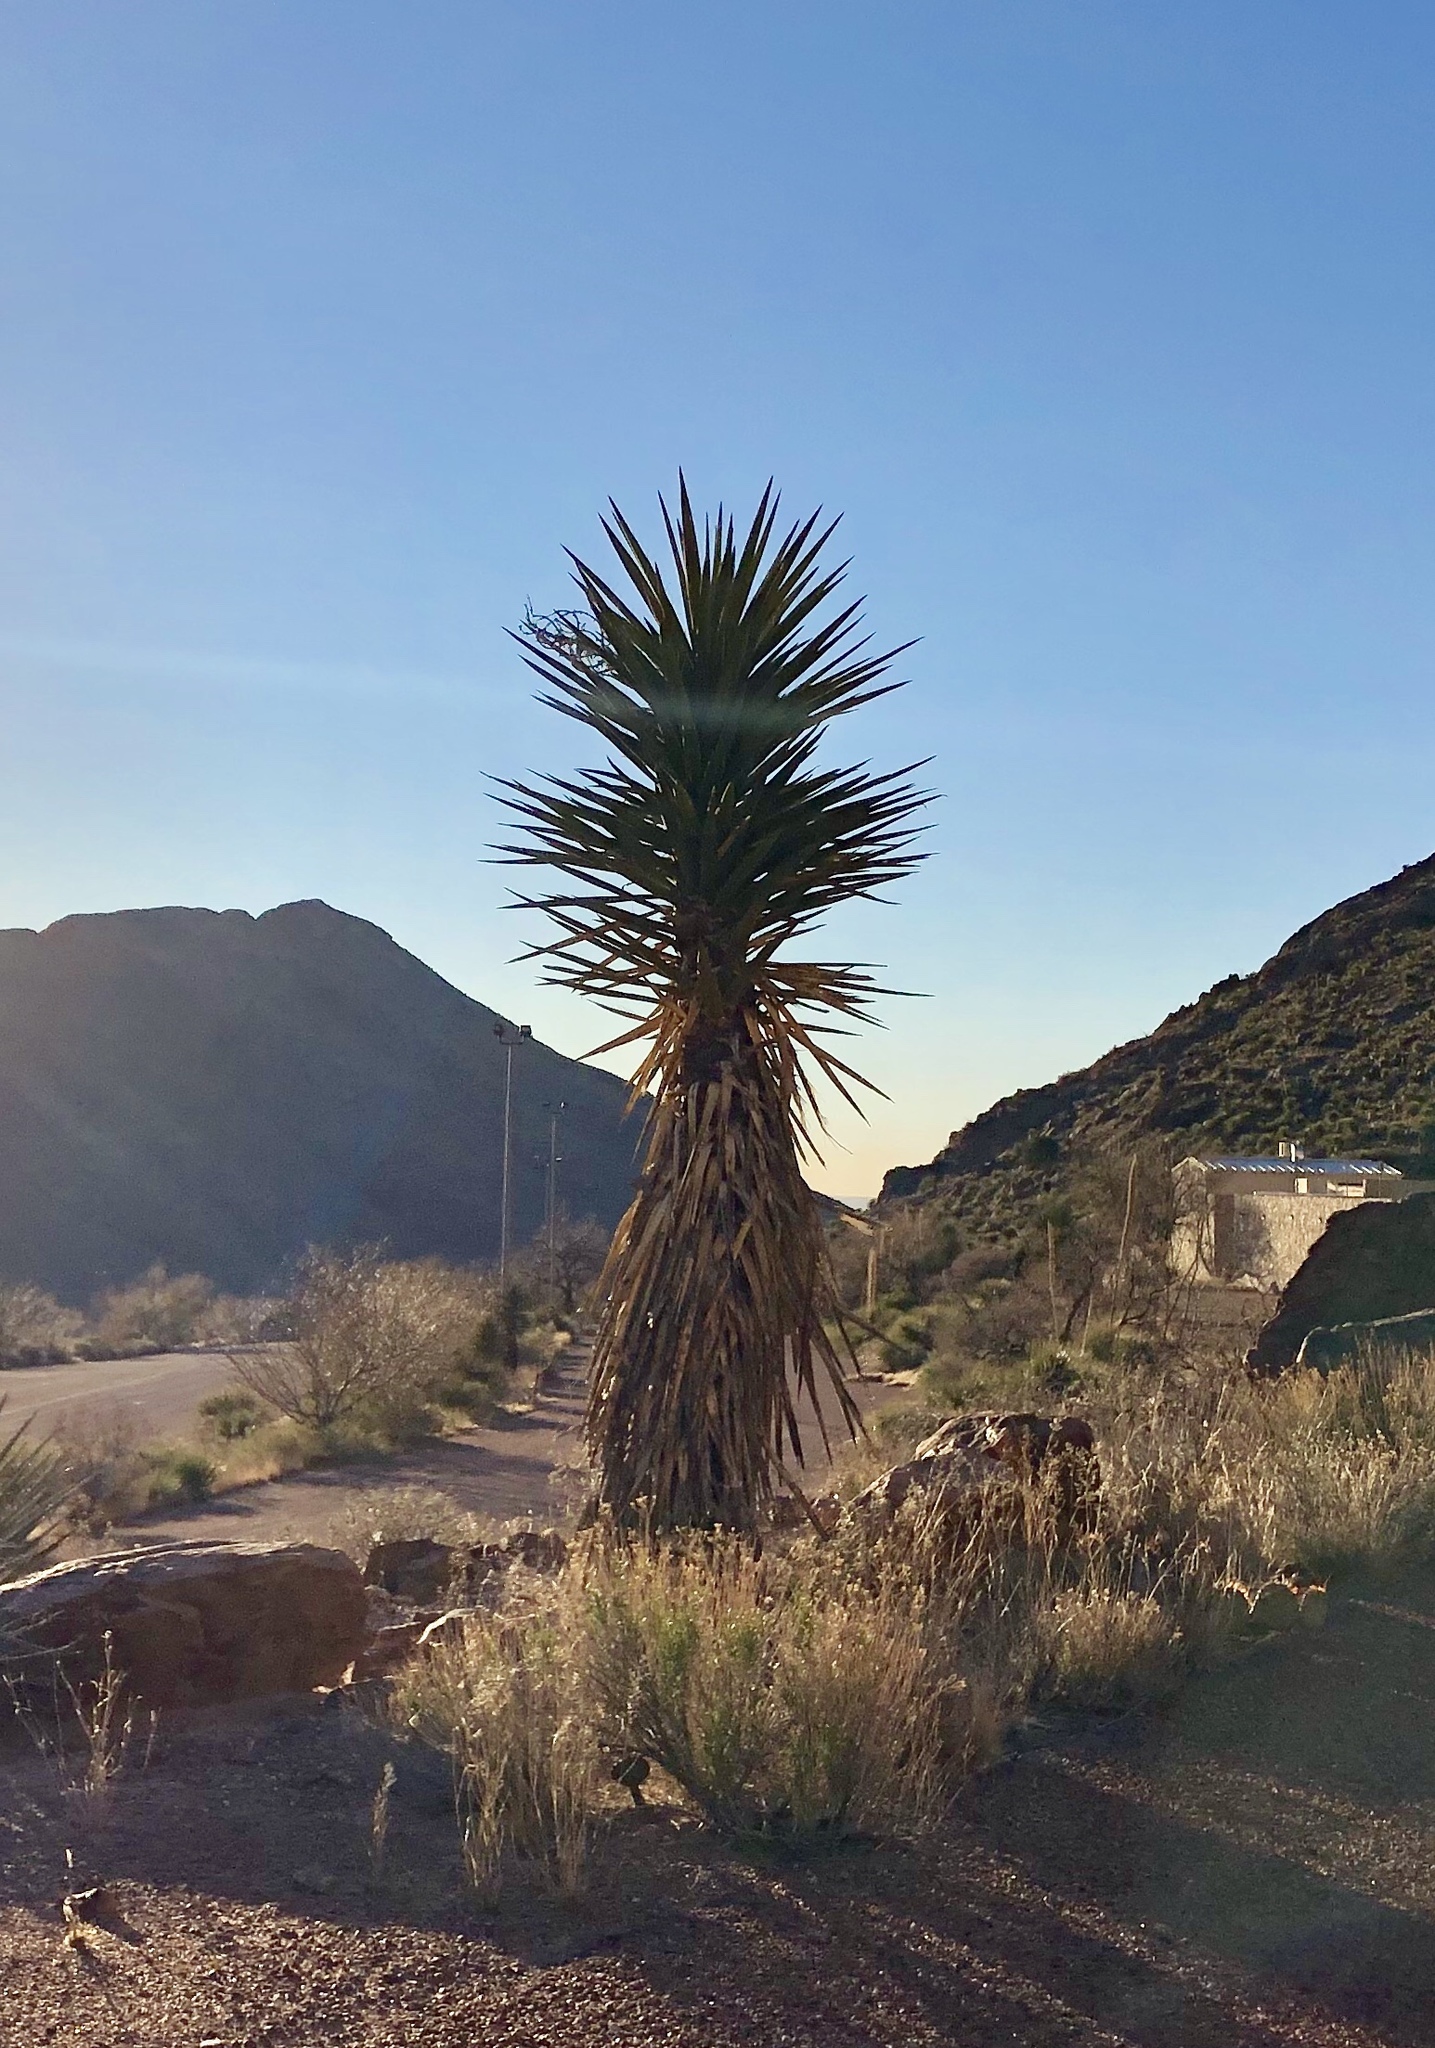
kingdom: Plantae
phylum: Tracheophyta
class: Liliopsida
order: Asparagales
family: Asparagaceae
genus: Yucca
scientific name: Yucca treculiana
